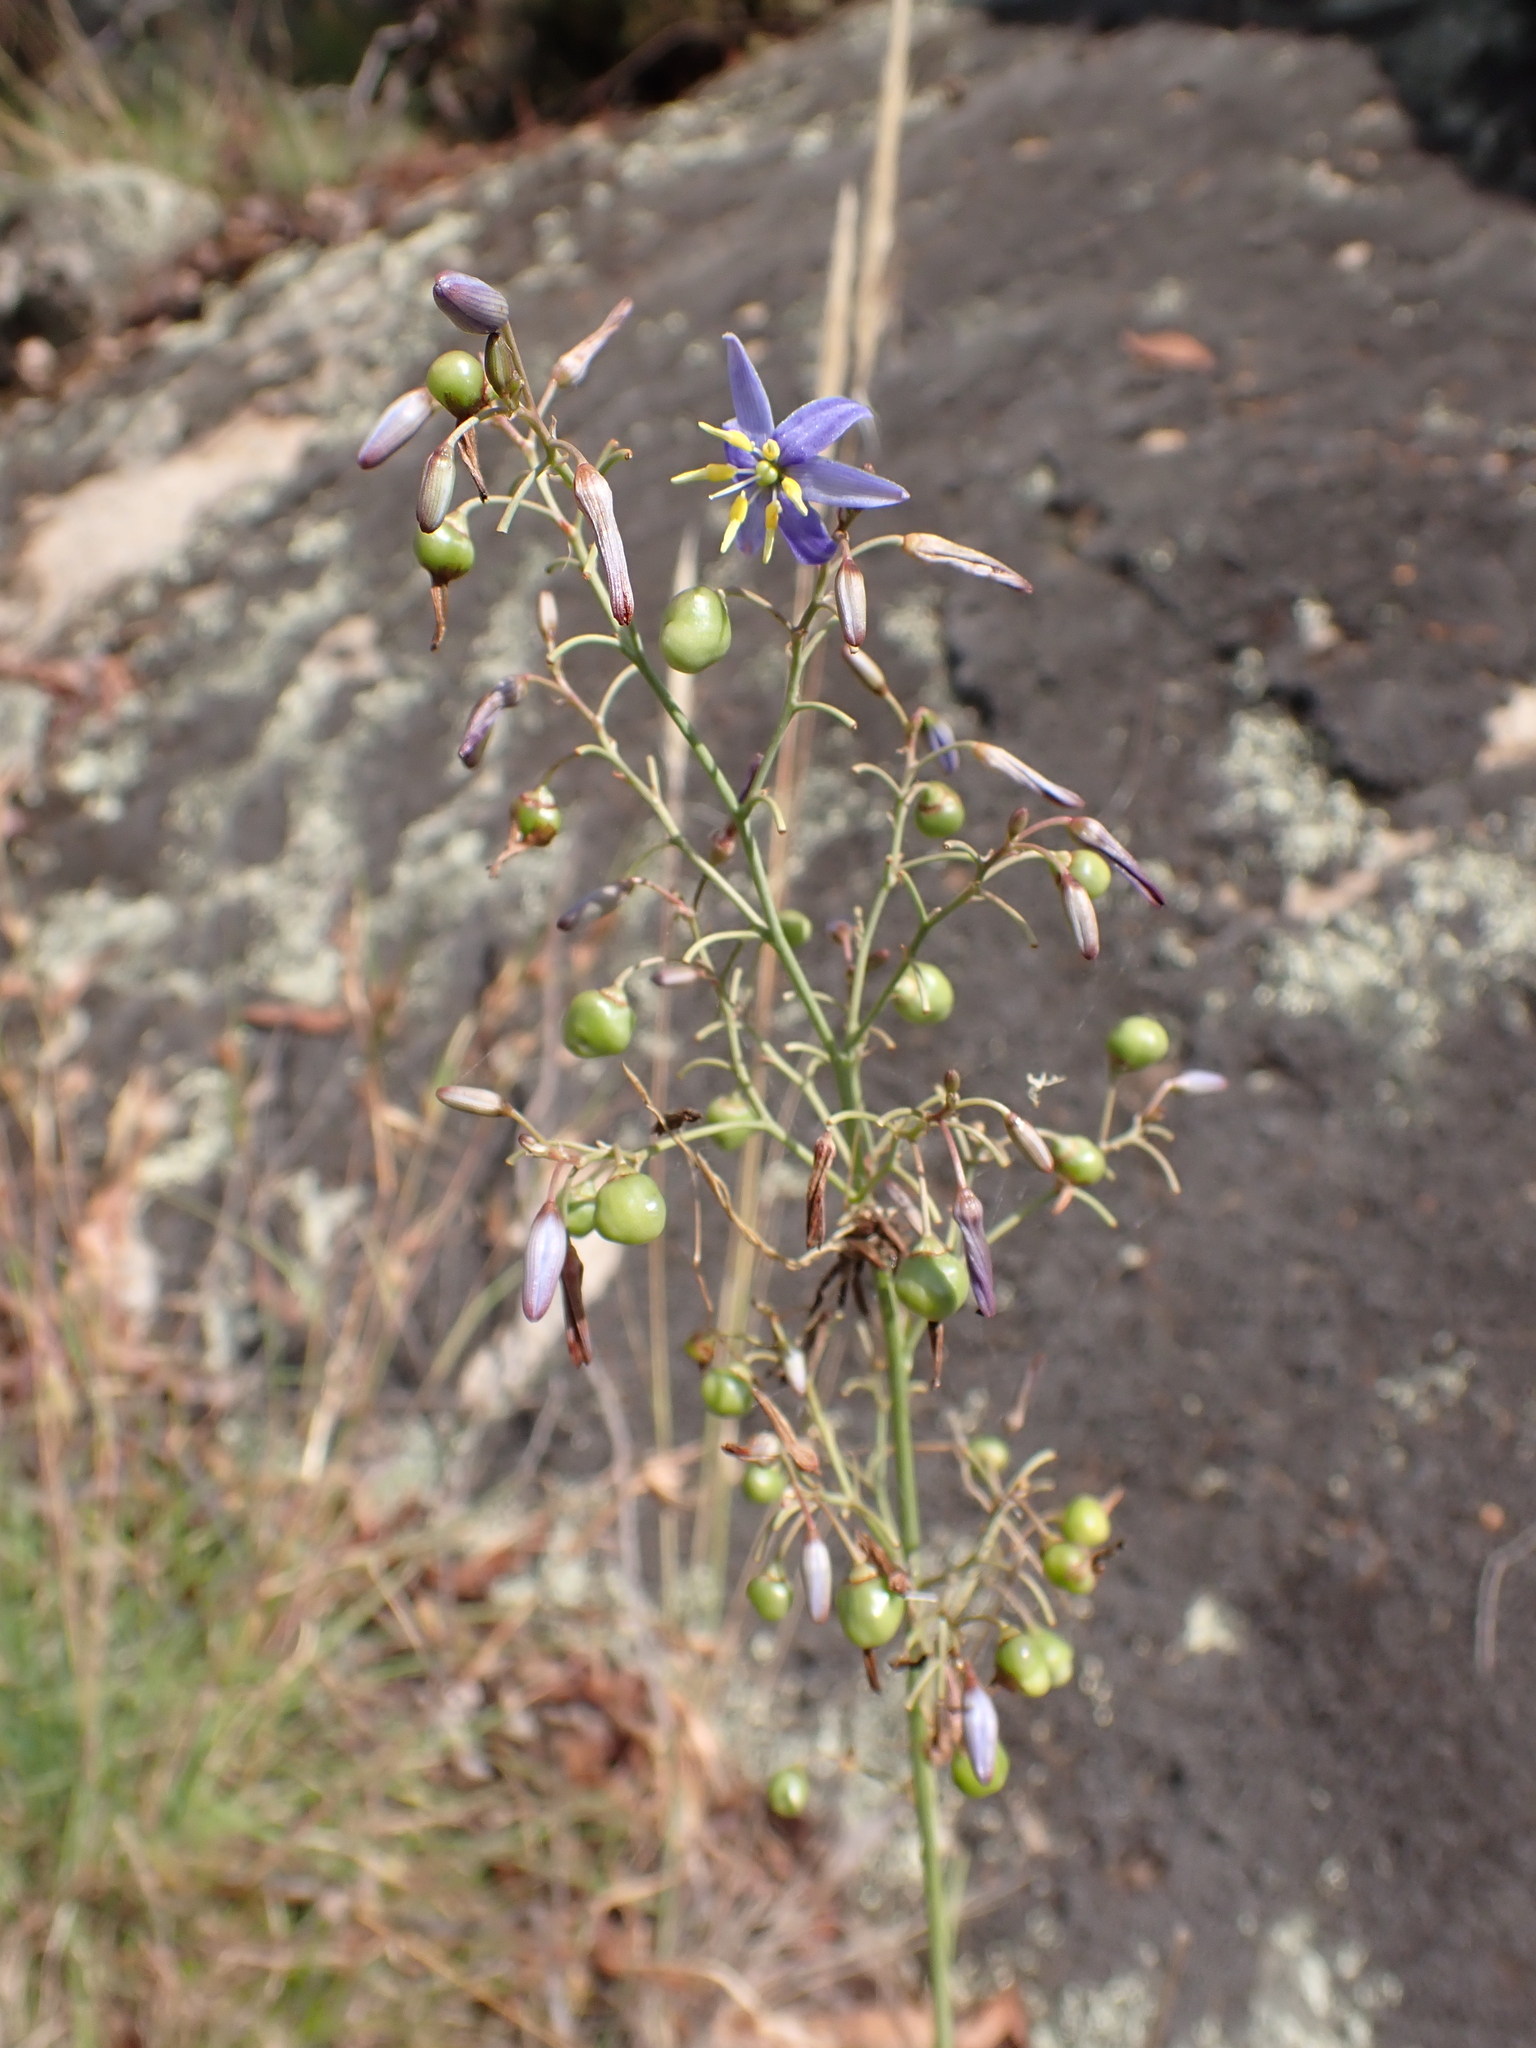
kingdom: Plantae
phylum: Tracheophyta
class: Liliopsida
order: Asparagales
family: Asphodelaceae
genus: Dianella
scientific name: Dianella longifolia
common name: Blue flax-lily
